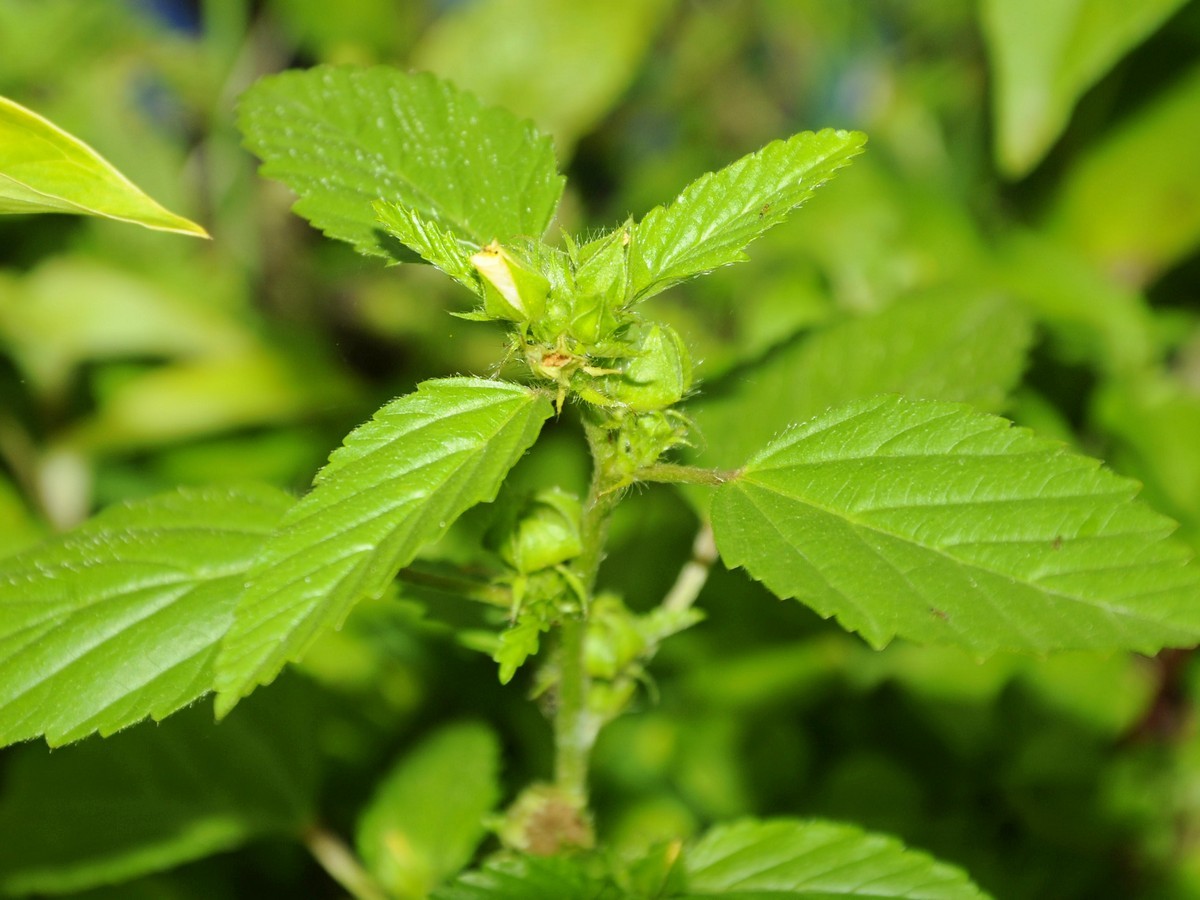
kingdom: Plantae
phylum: Tracheophyta
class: Magnoliopsida
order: Malvales
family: Malvaceae
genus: Malvastrum
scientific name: Malvastrum coromandelianum
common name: Threelobe false mallow
